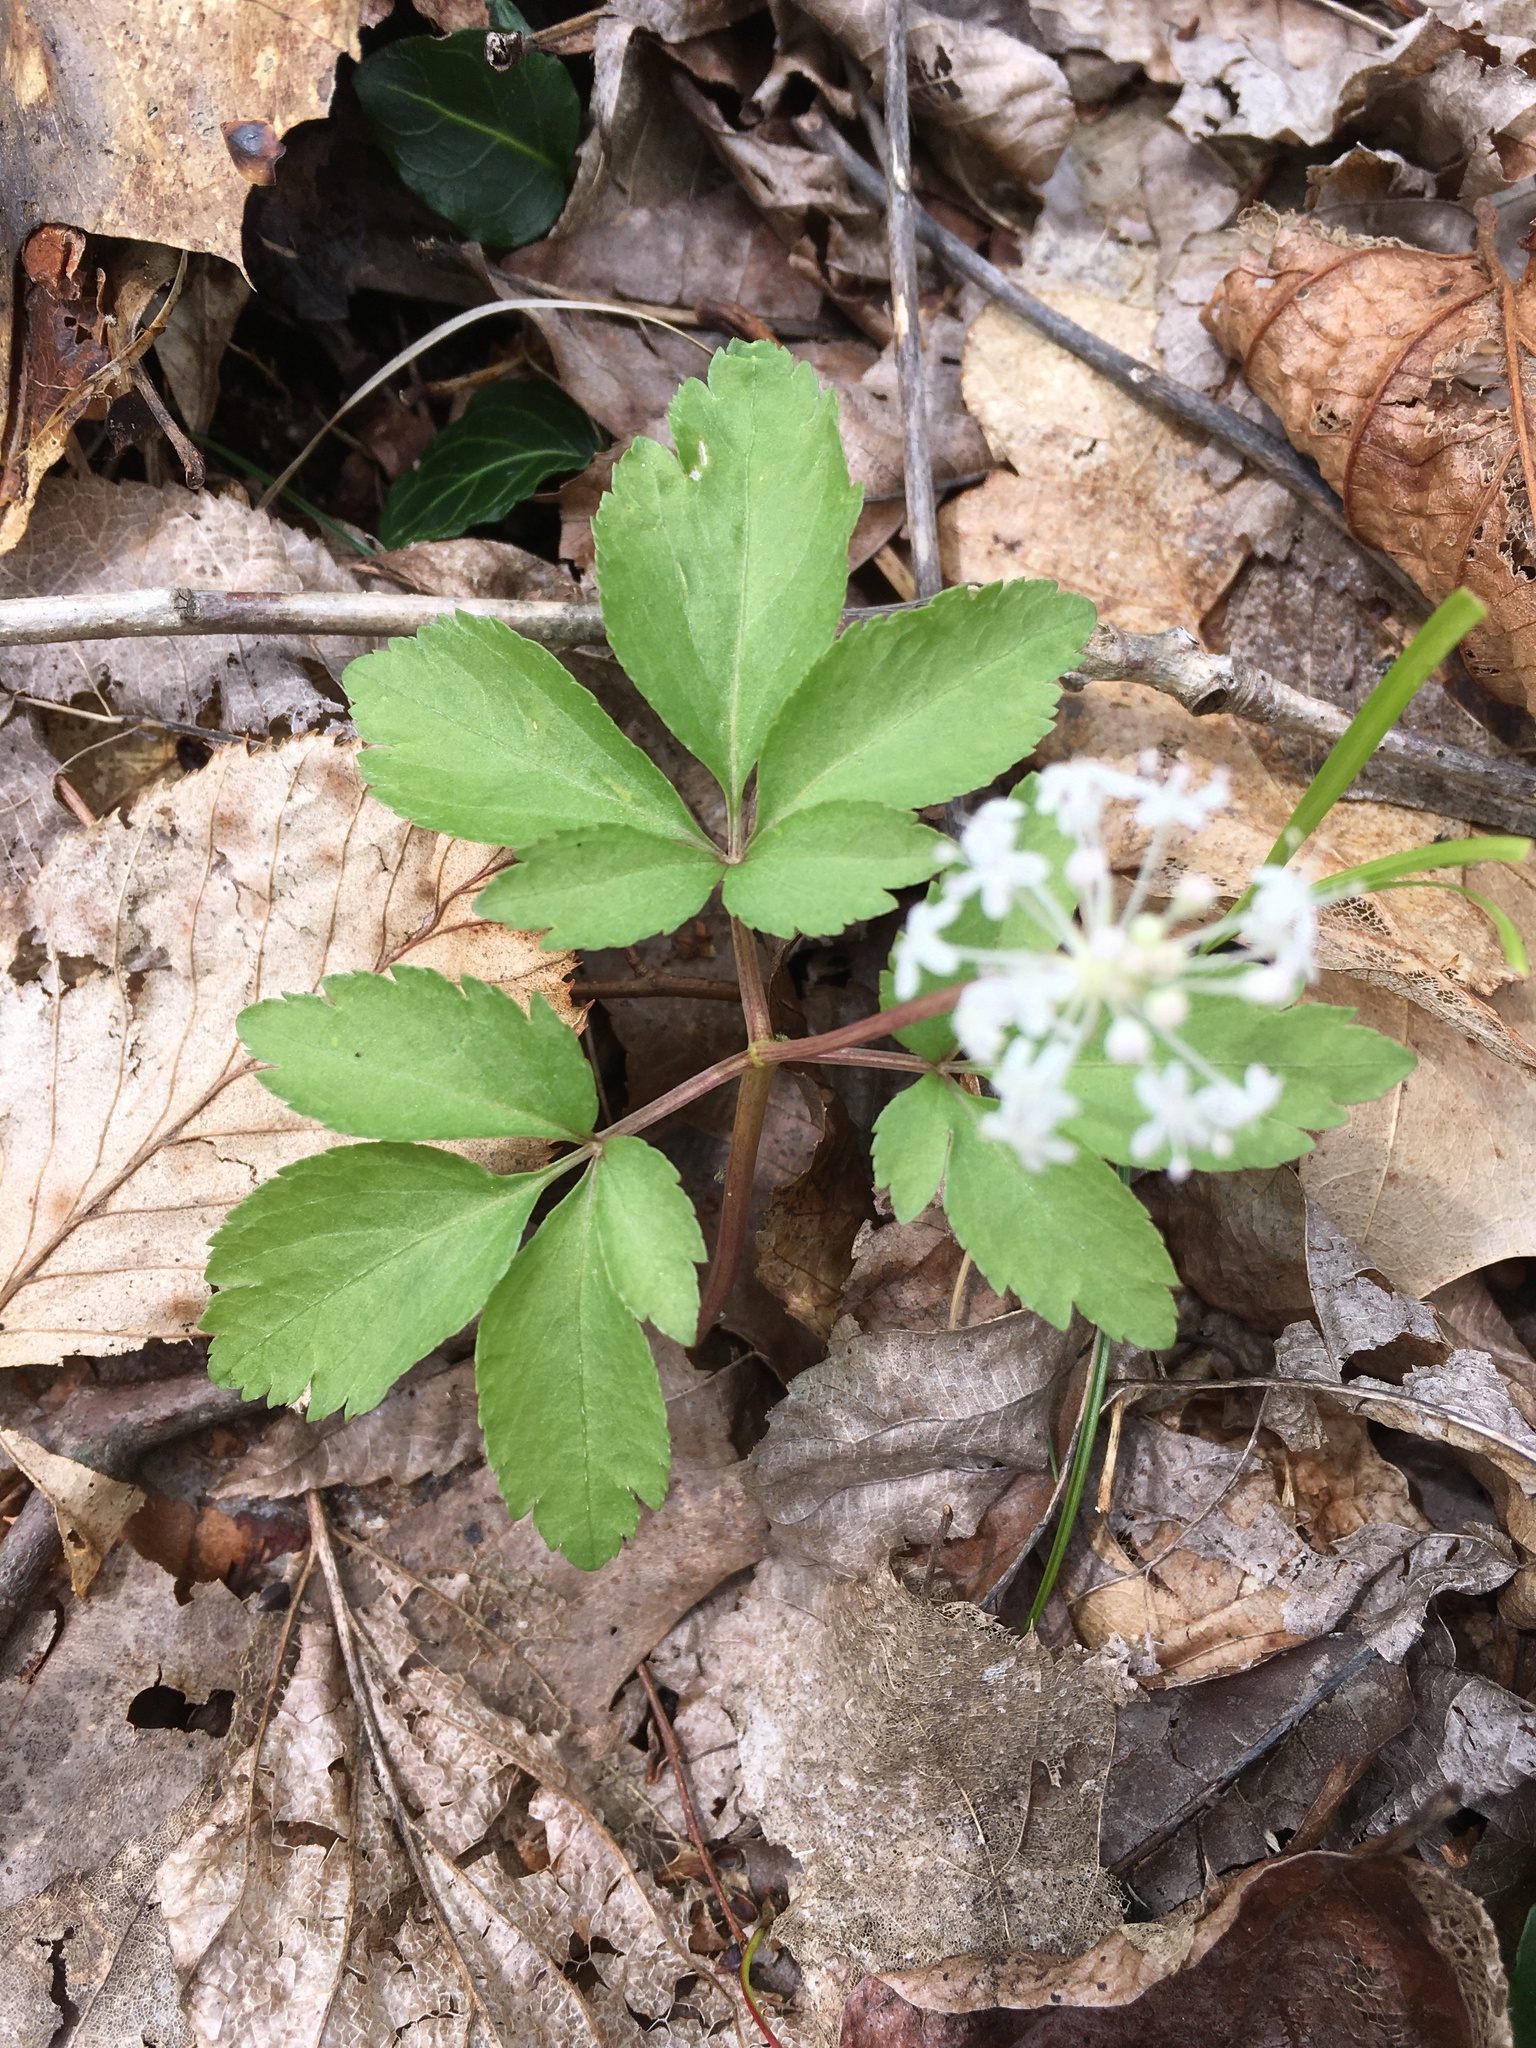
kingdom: Plantae
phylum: Tracheophyta
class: Magnoliopsida
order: Apiales
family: Araliaceae
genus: Panax
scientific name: Panax trifolius
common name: Dwarf ginseng
